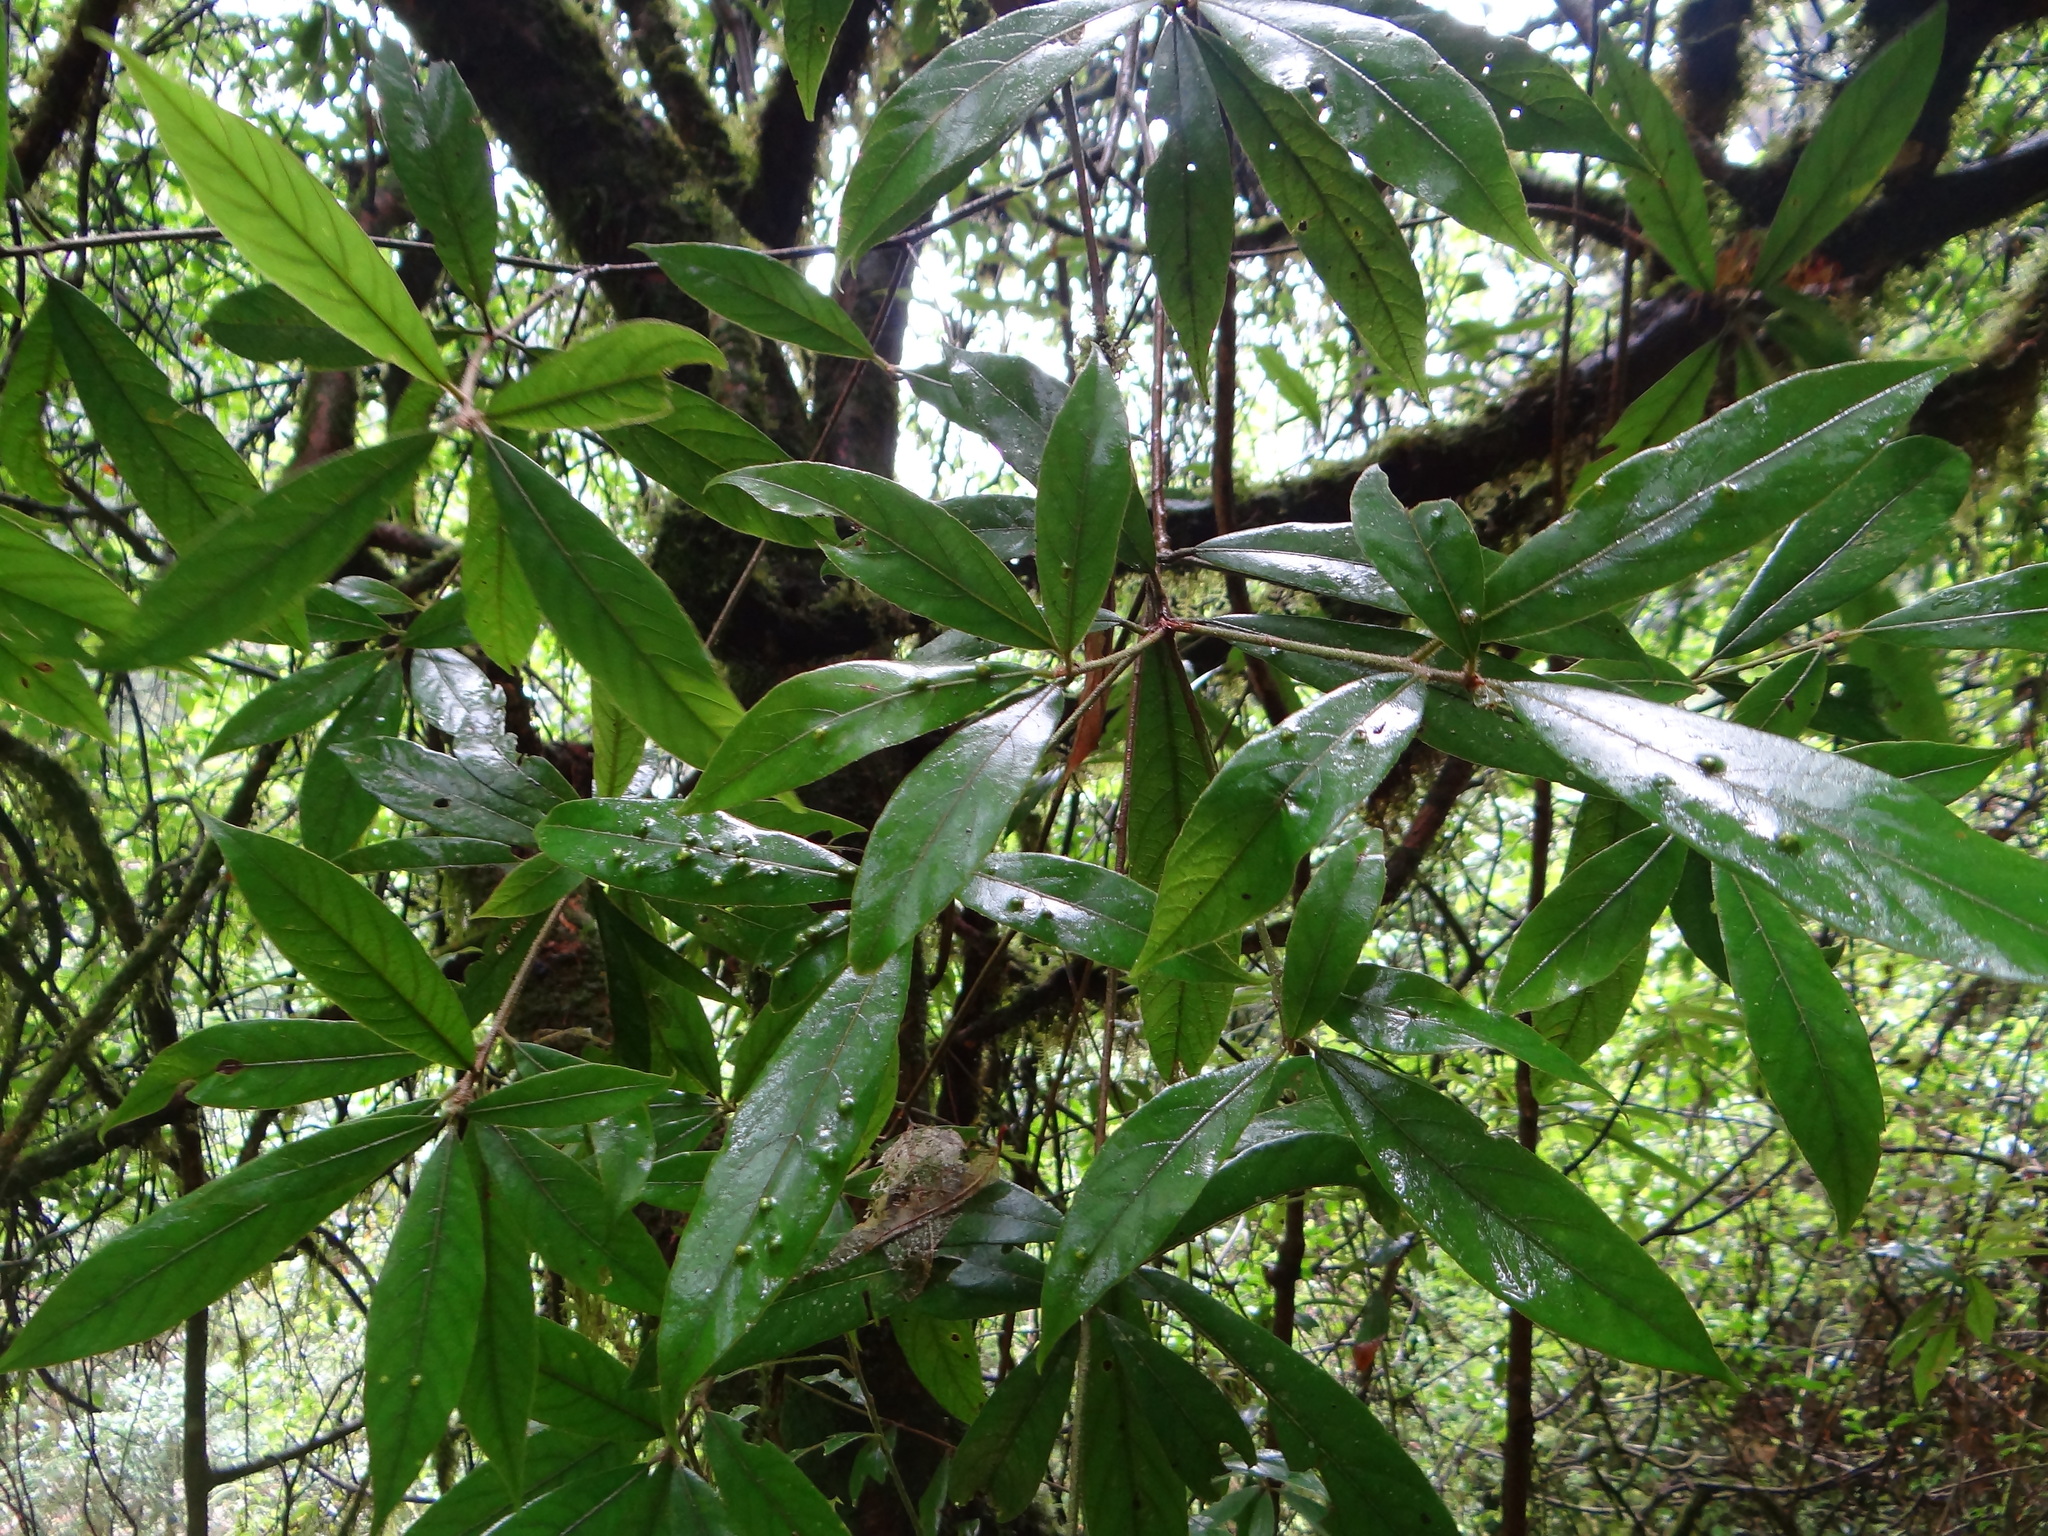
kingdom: Plantae
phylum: Tracheophyta
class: Magnoliopsida
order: Laurales
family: Lauraceae
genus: Actinodaphne
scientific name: Actinodaphne mushaensis
